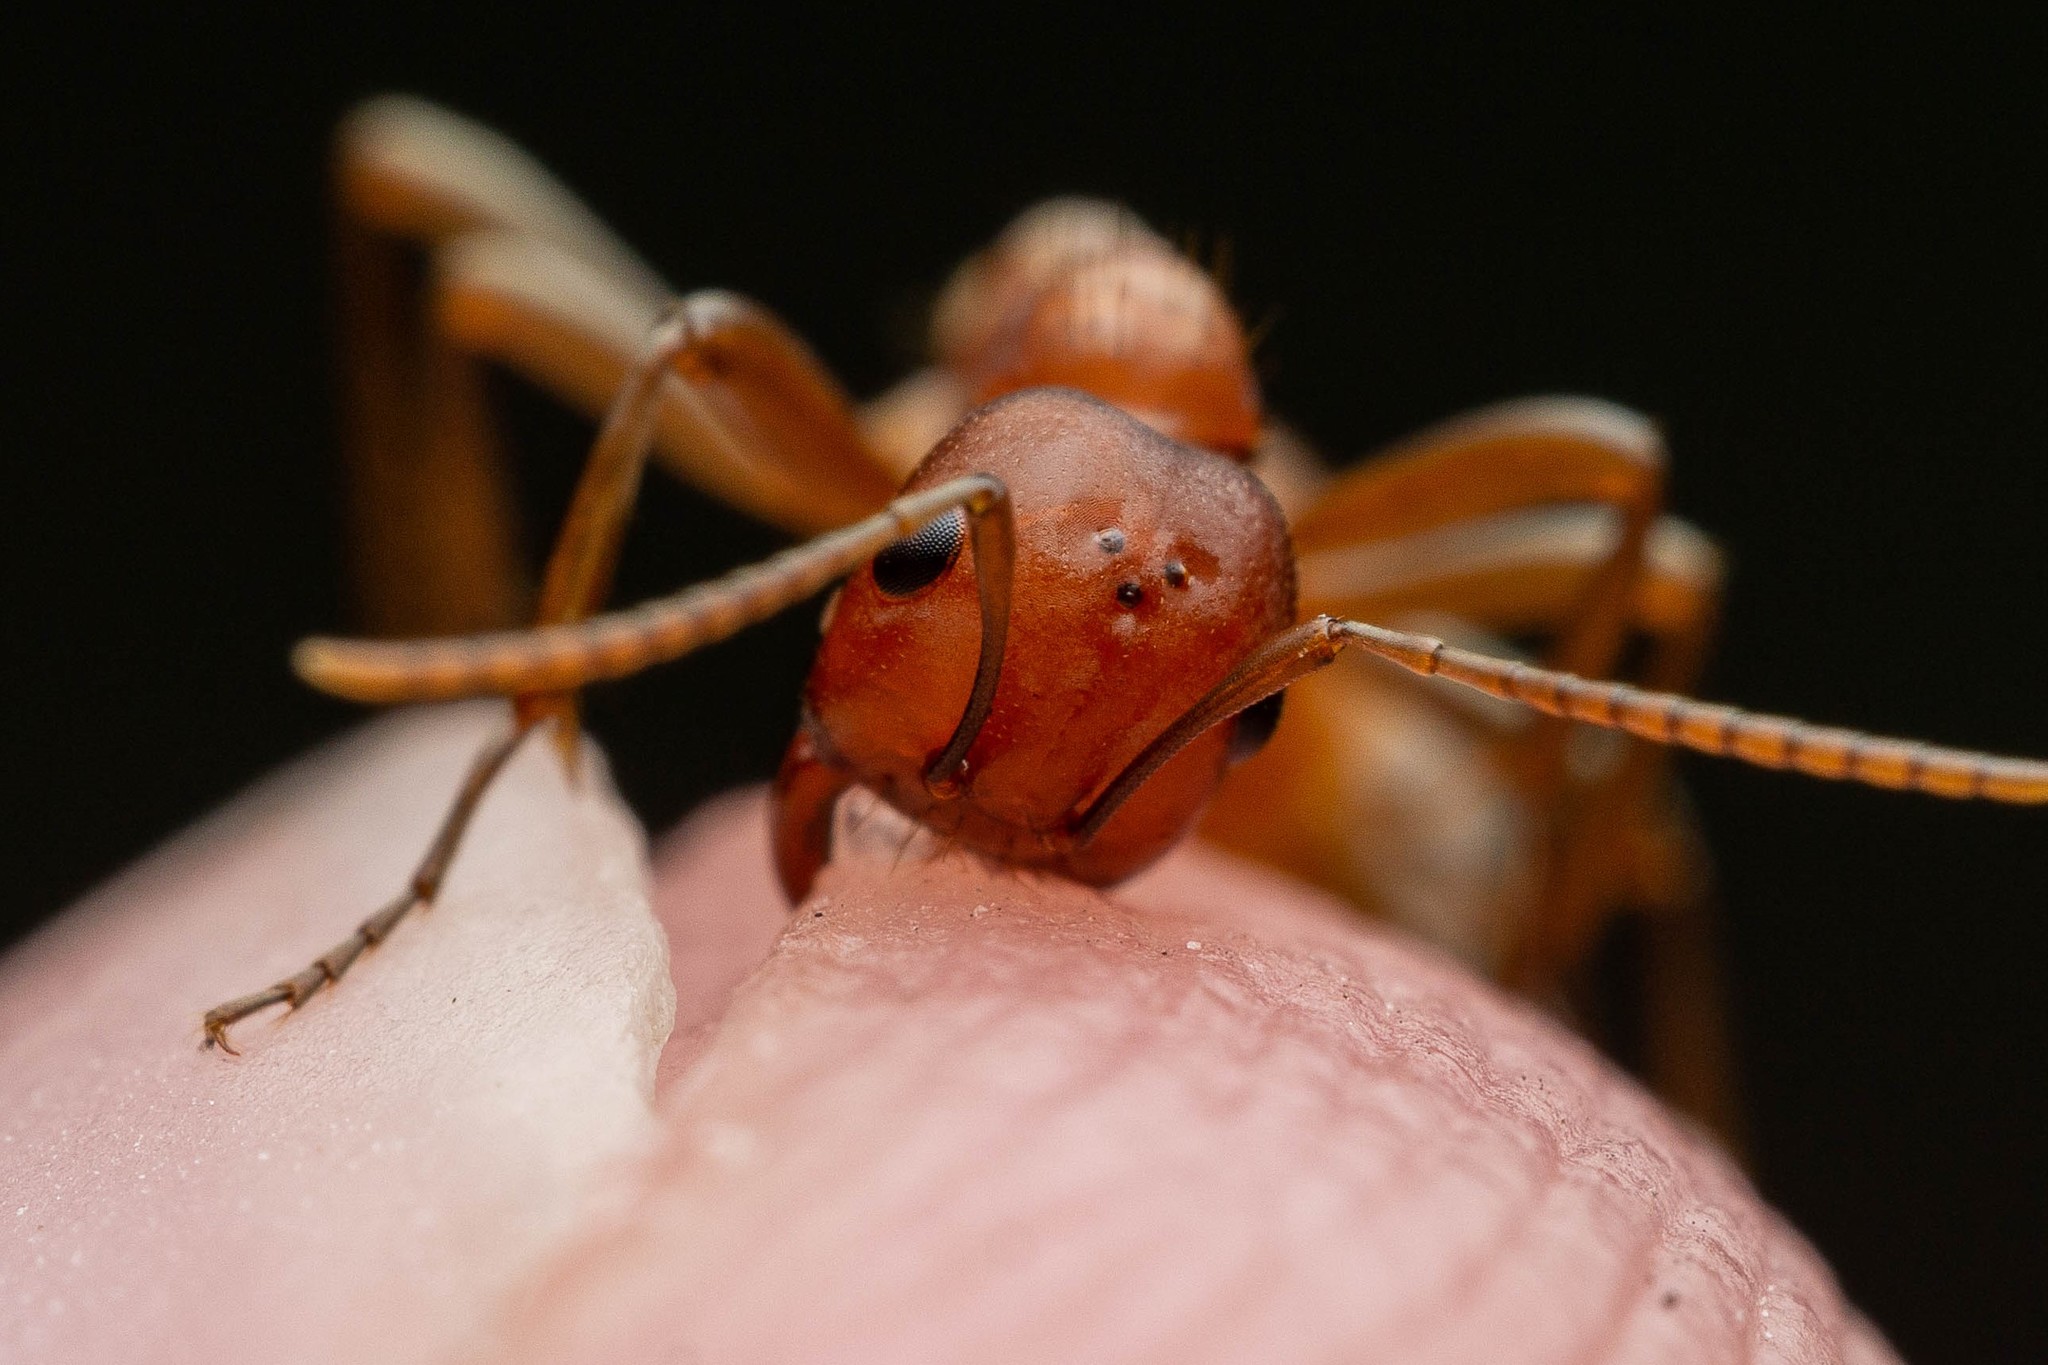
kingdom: Animalia
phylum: Arthropoda
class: Insecta
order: Hymenoptera
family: Formicidae
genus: Polyergus
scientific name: Polyergus topoffi
